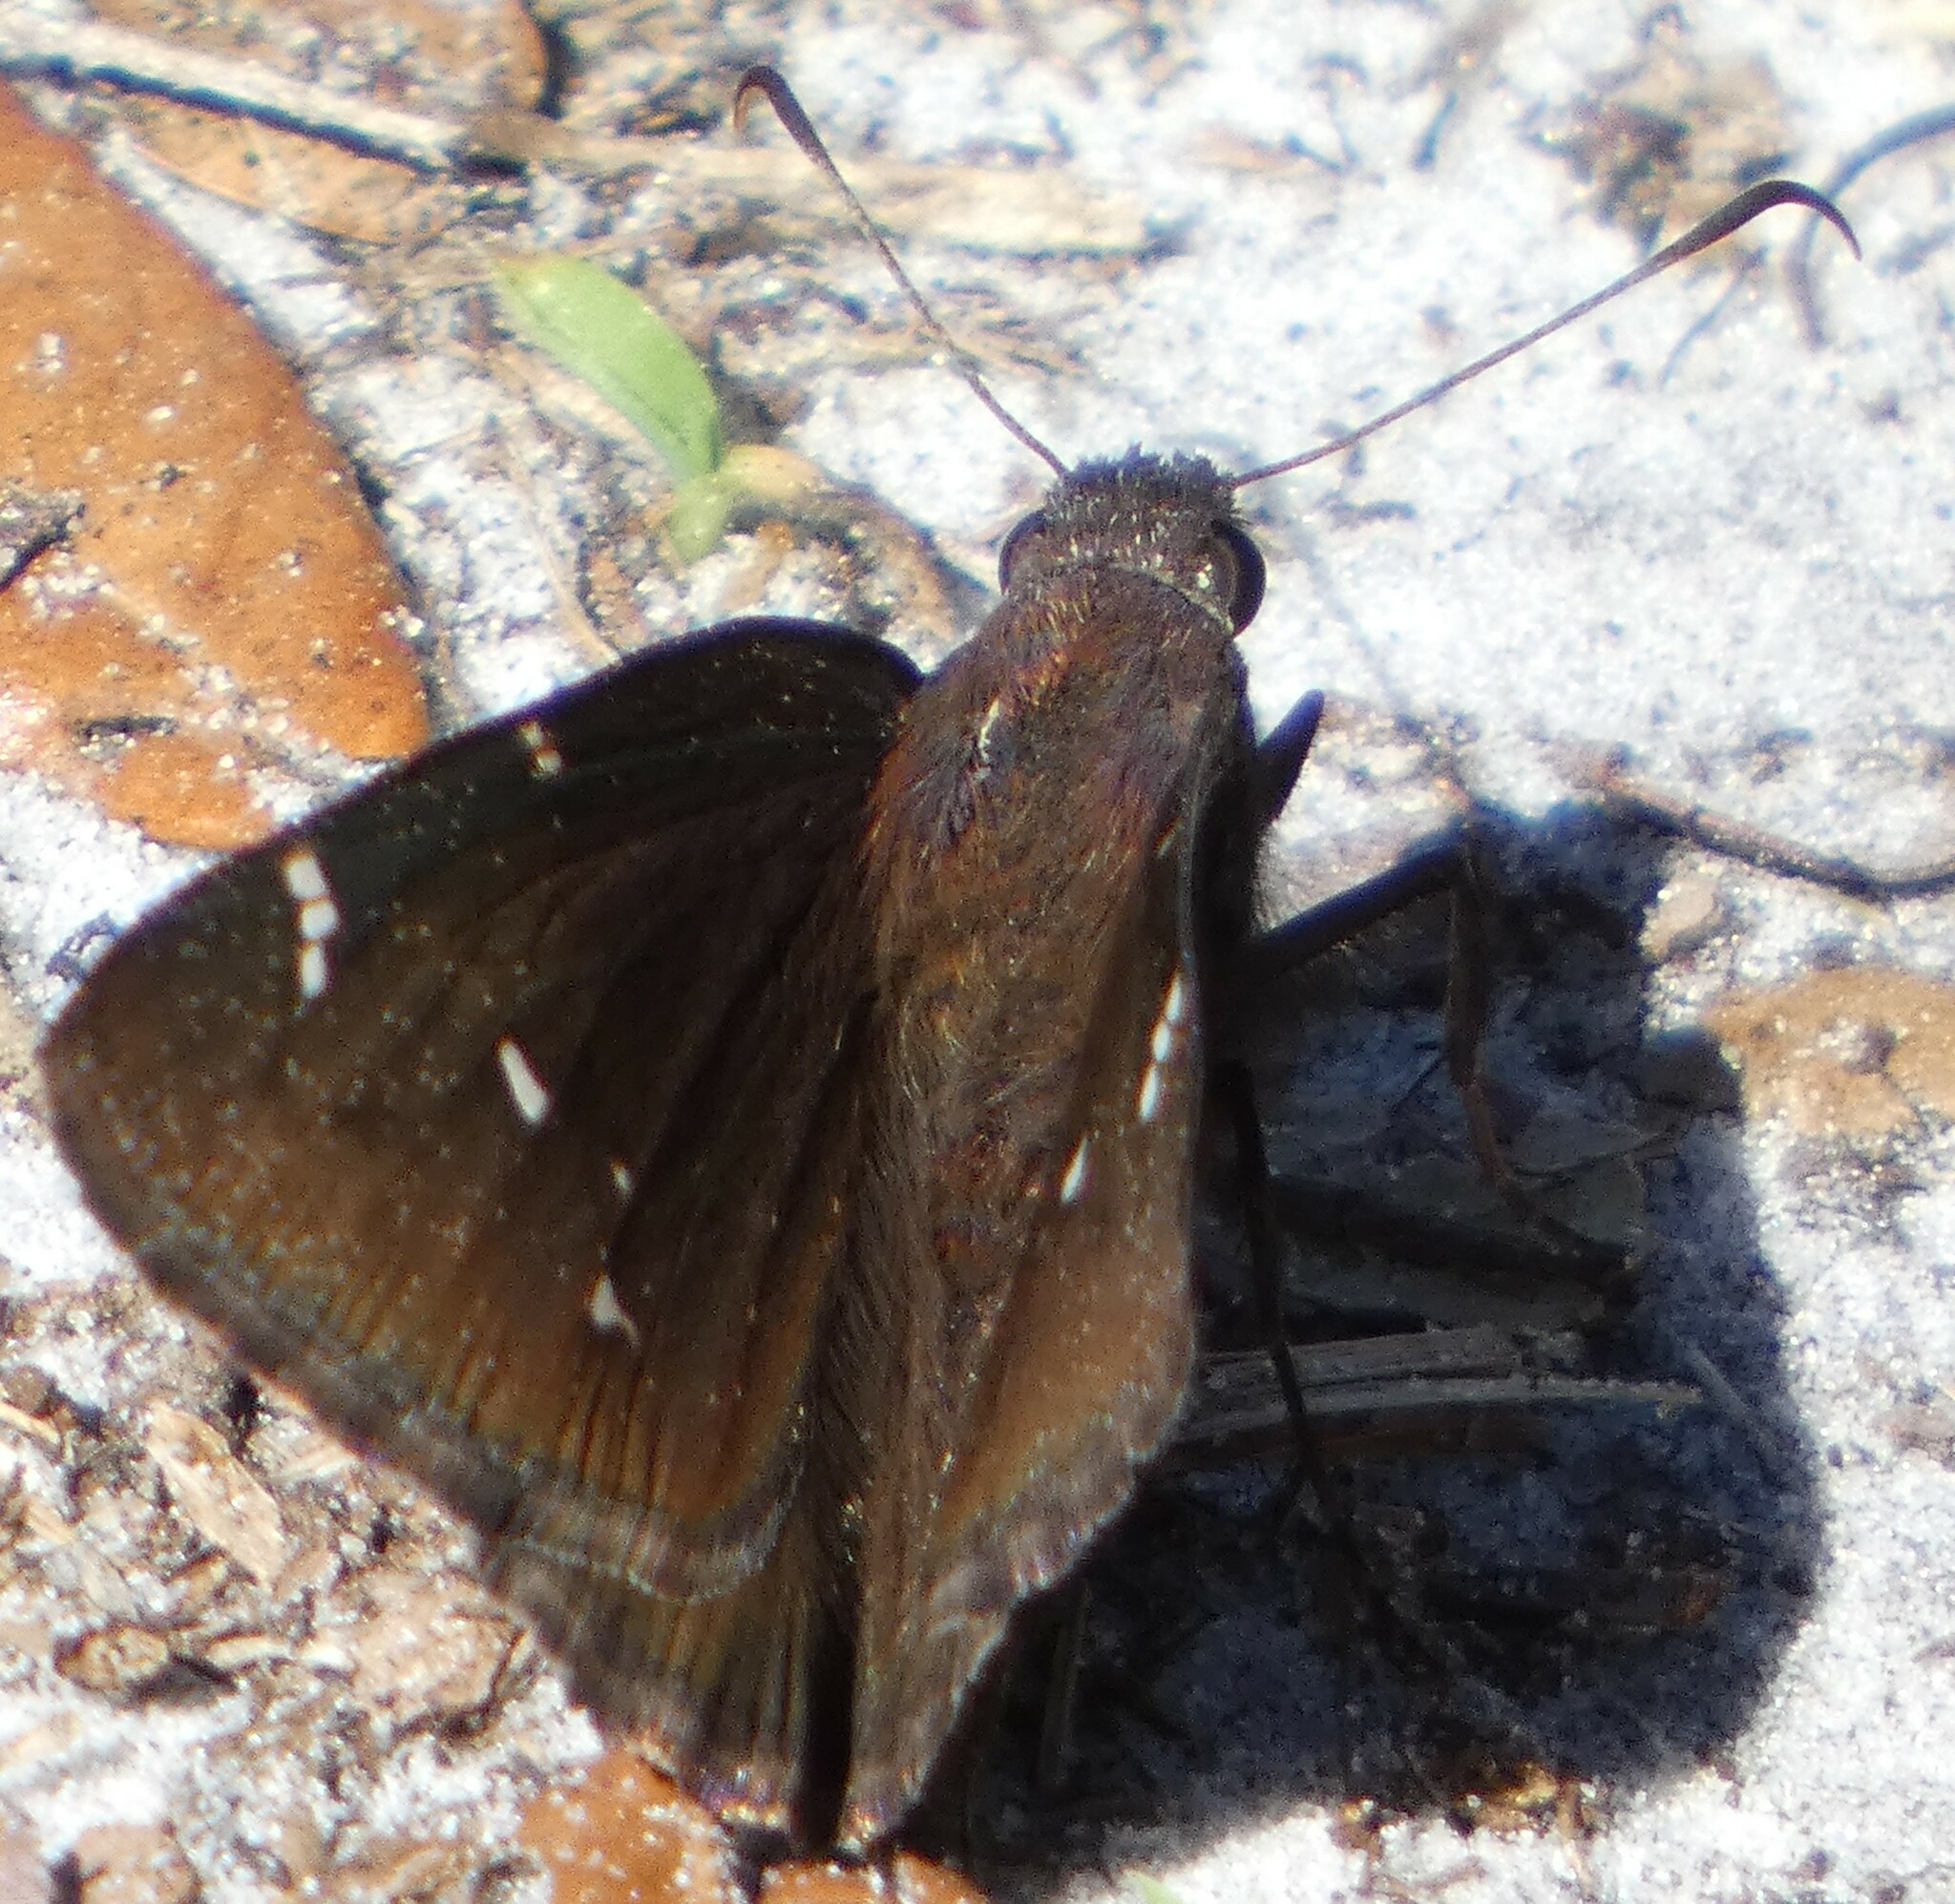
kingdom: Animalia
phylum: Arthropoda
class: Insecta
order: Lepidoptera
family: Hesperiidae
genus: Thorybes
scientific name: Thorybes pylades
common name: Northern cloudywing
